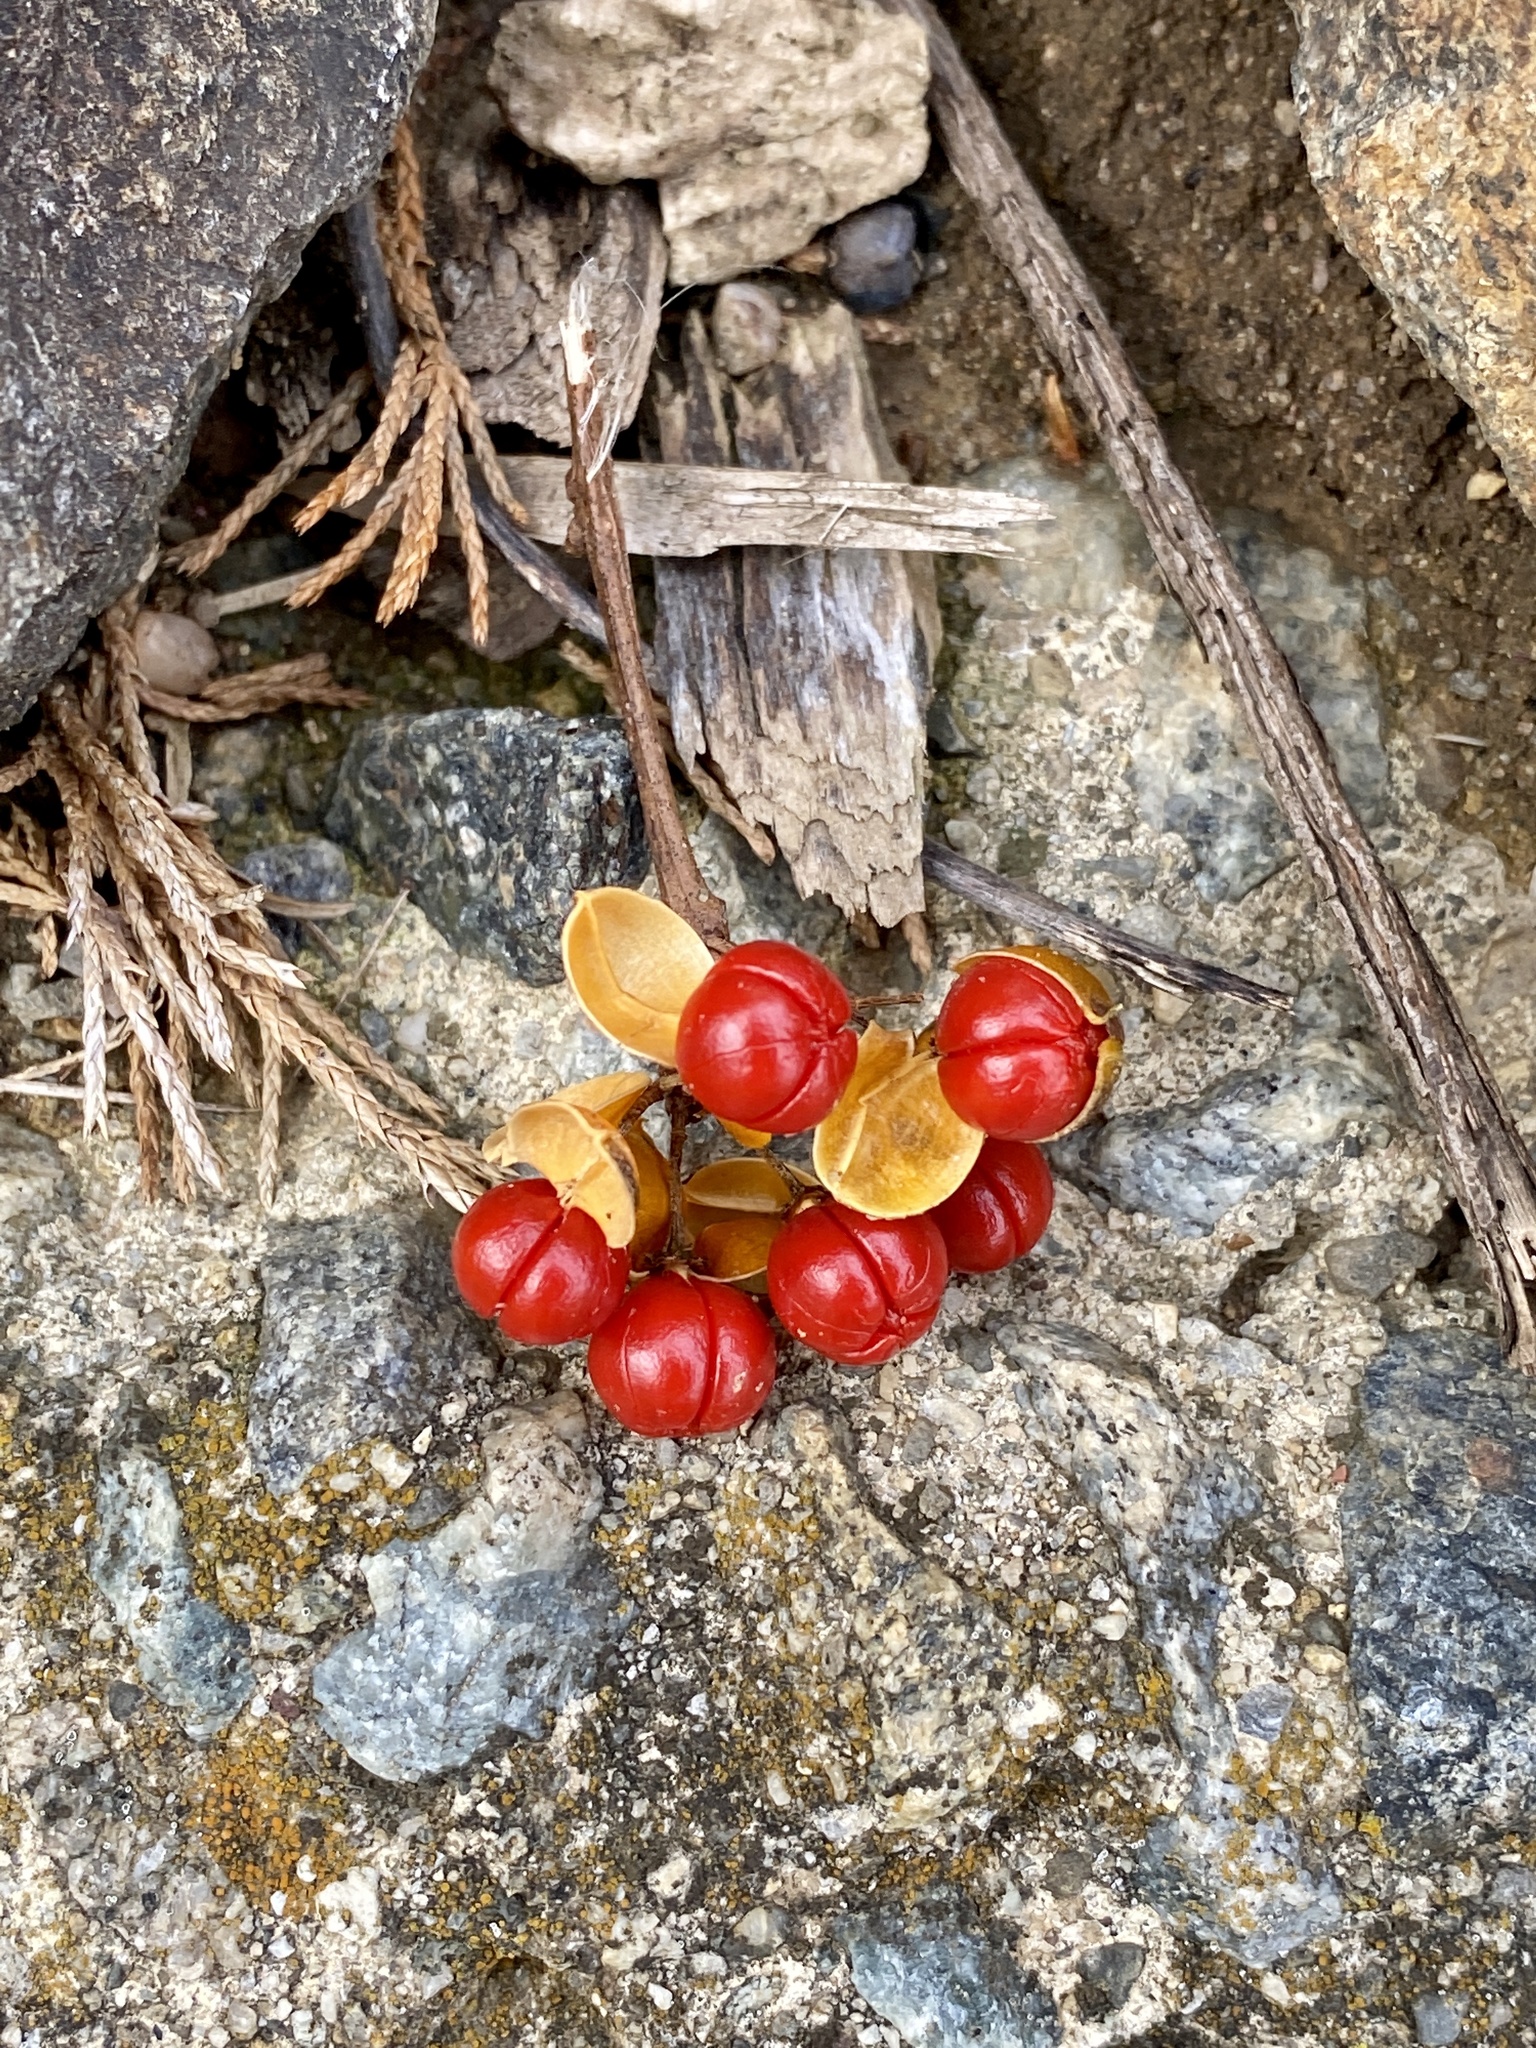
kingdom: Plantae
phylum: Tracheophyta
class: Magnoliopsida
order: Celastrales
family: Celastraceae
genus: Celastrus
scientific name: Celastrus orbiculatus
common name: Oriental bittersweet
